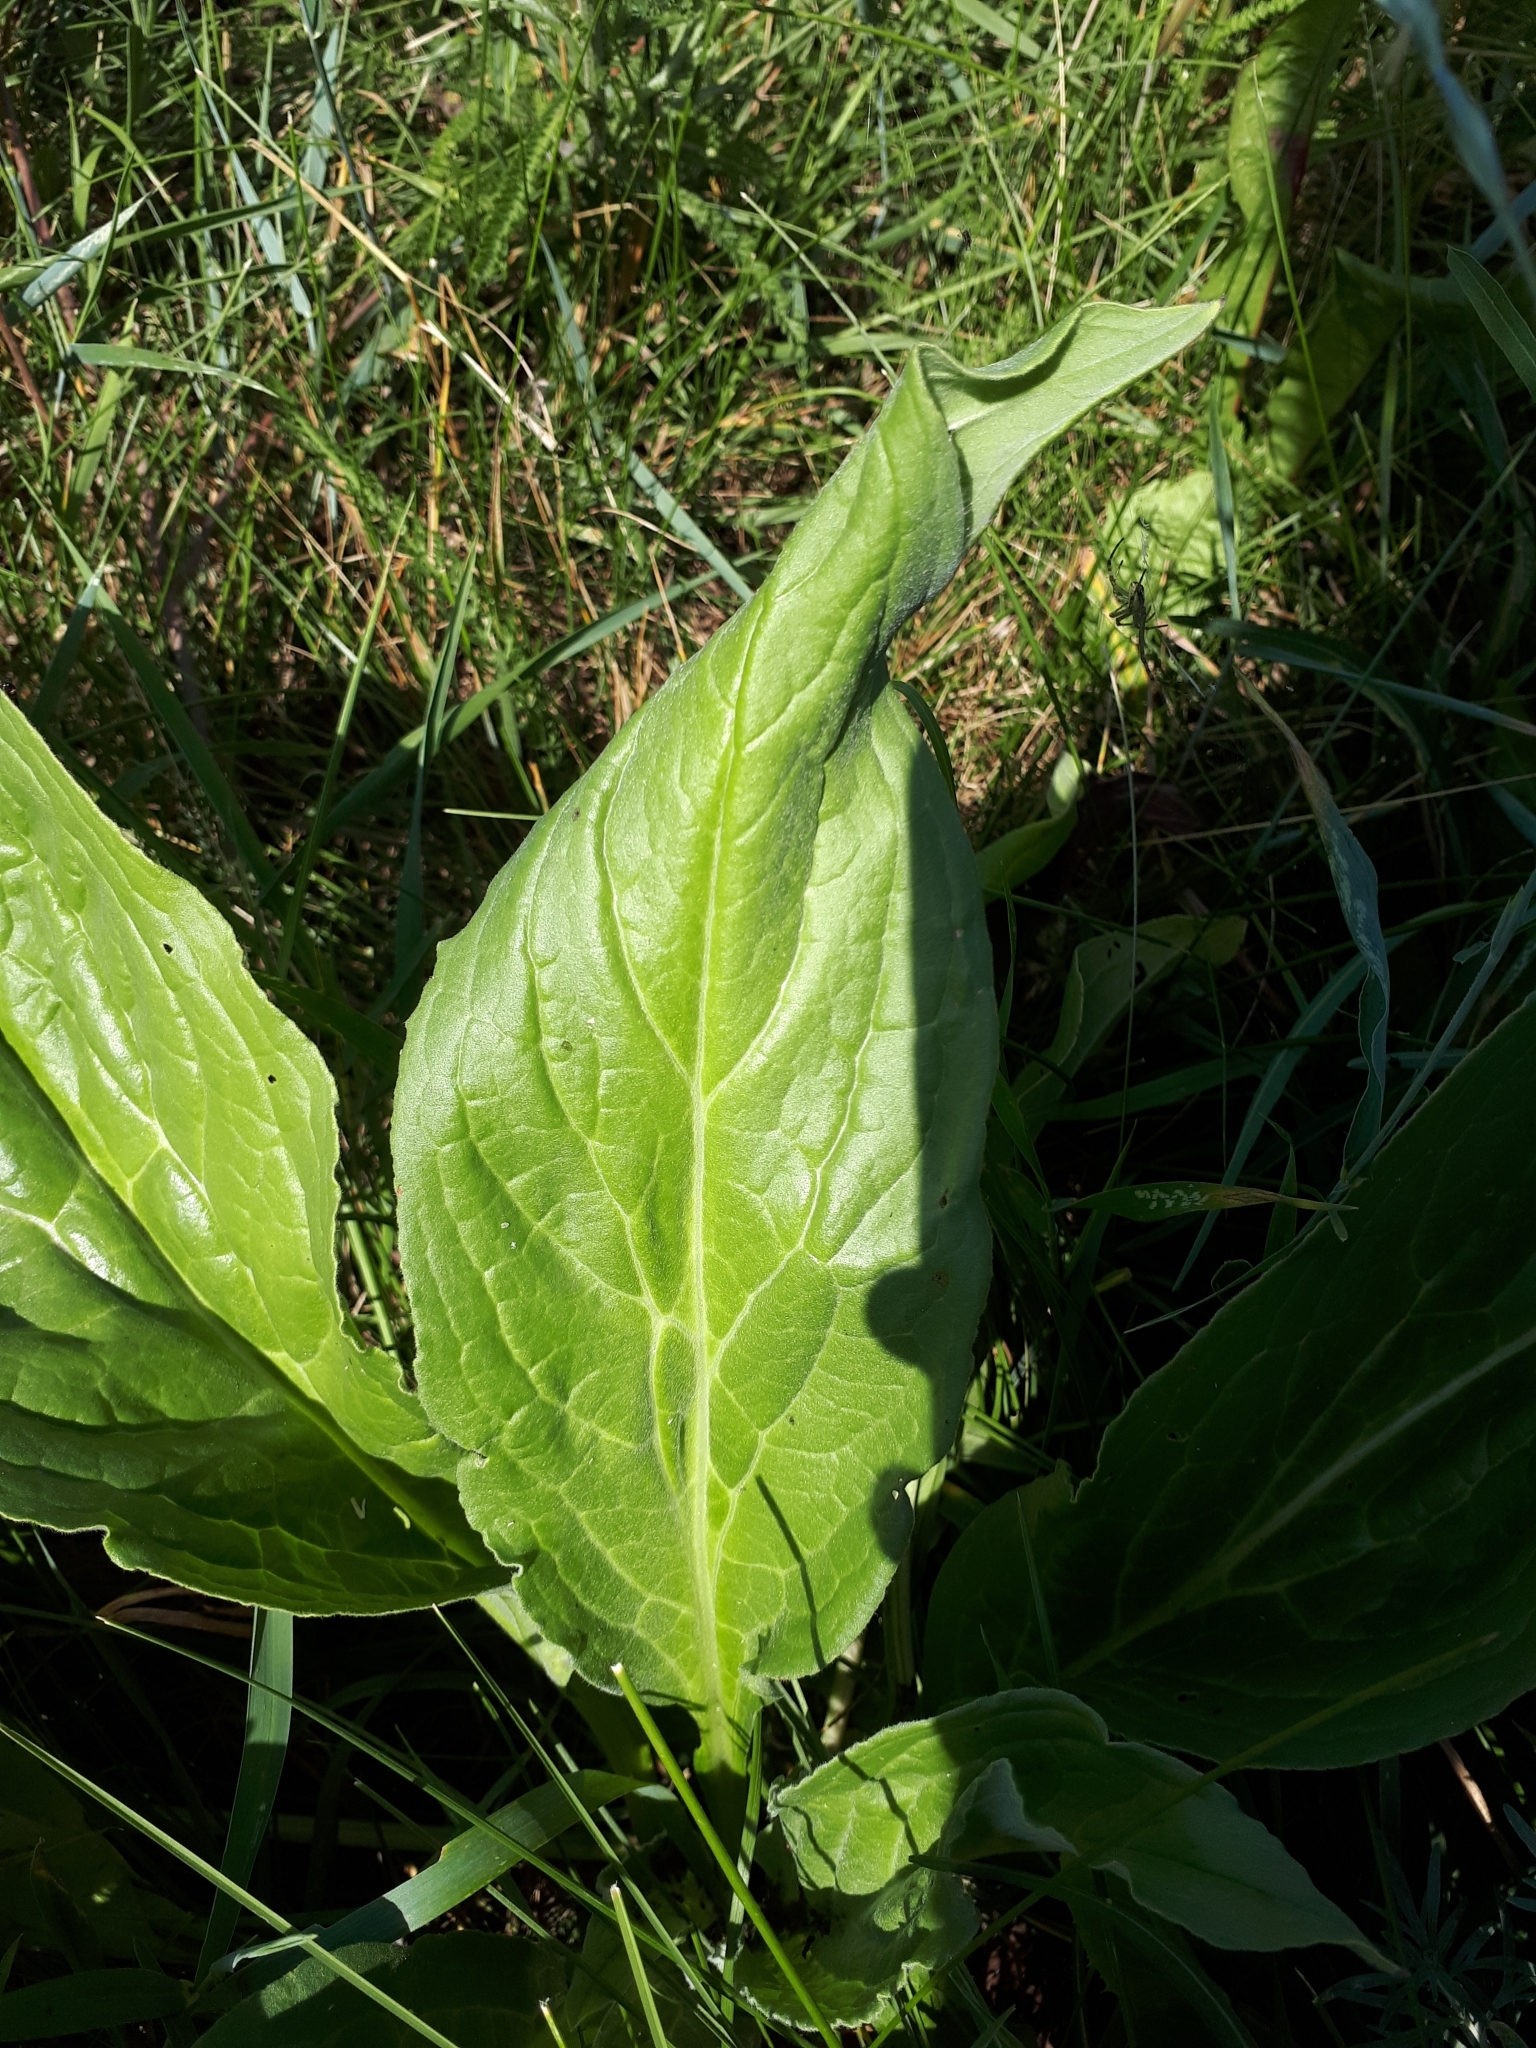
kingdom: Plantae
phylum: Tracheophyta
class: Magnoliopsida
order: Boraginales
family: Boraginaceae
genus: Cynoglossum
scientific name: Cynoglossum officinale
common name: Hound's-tongue
